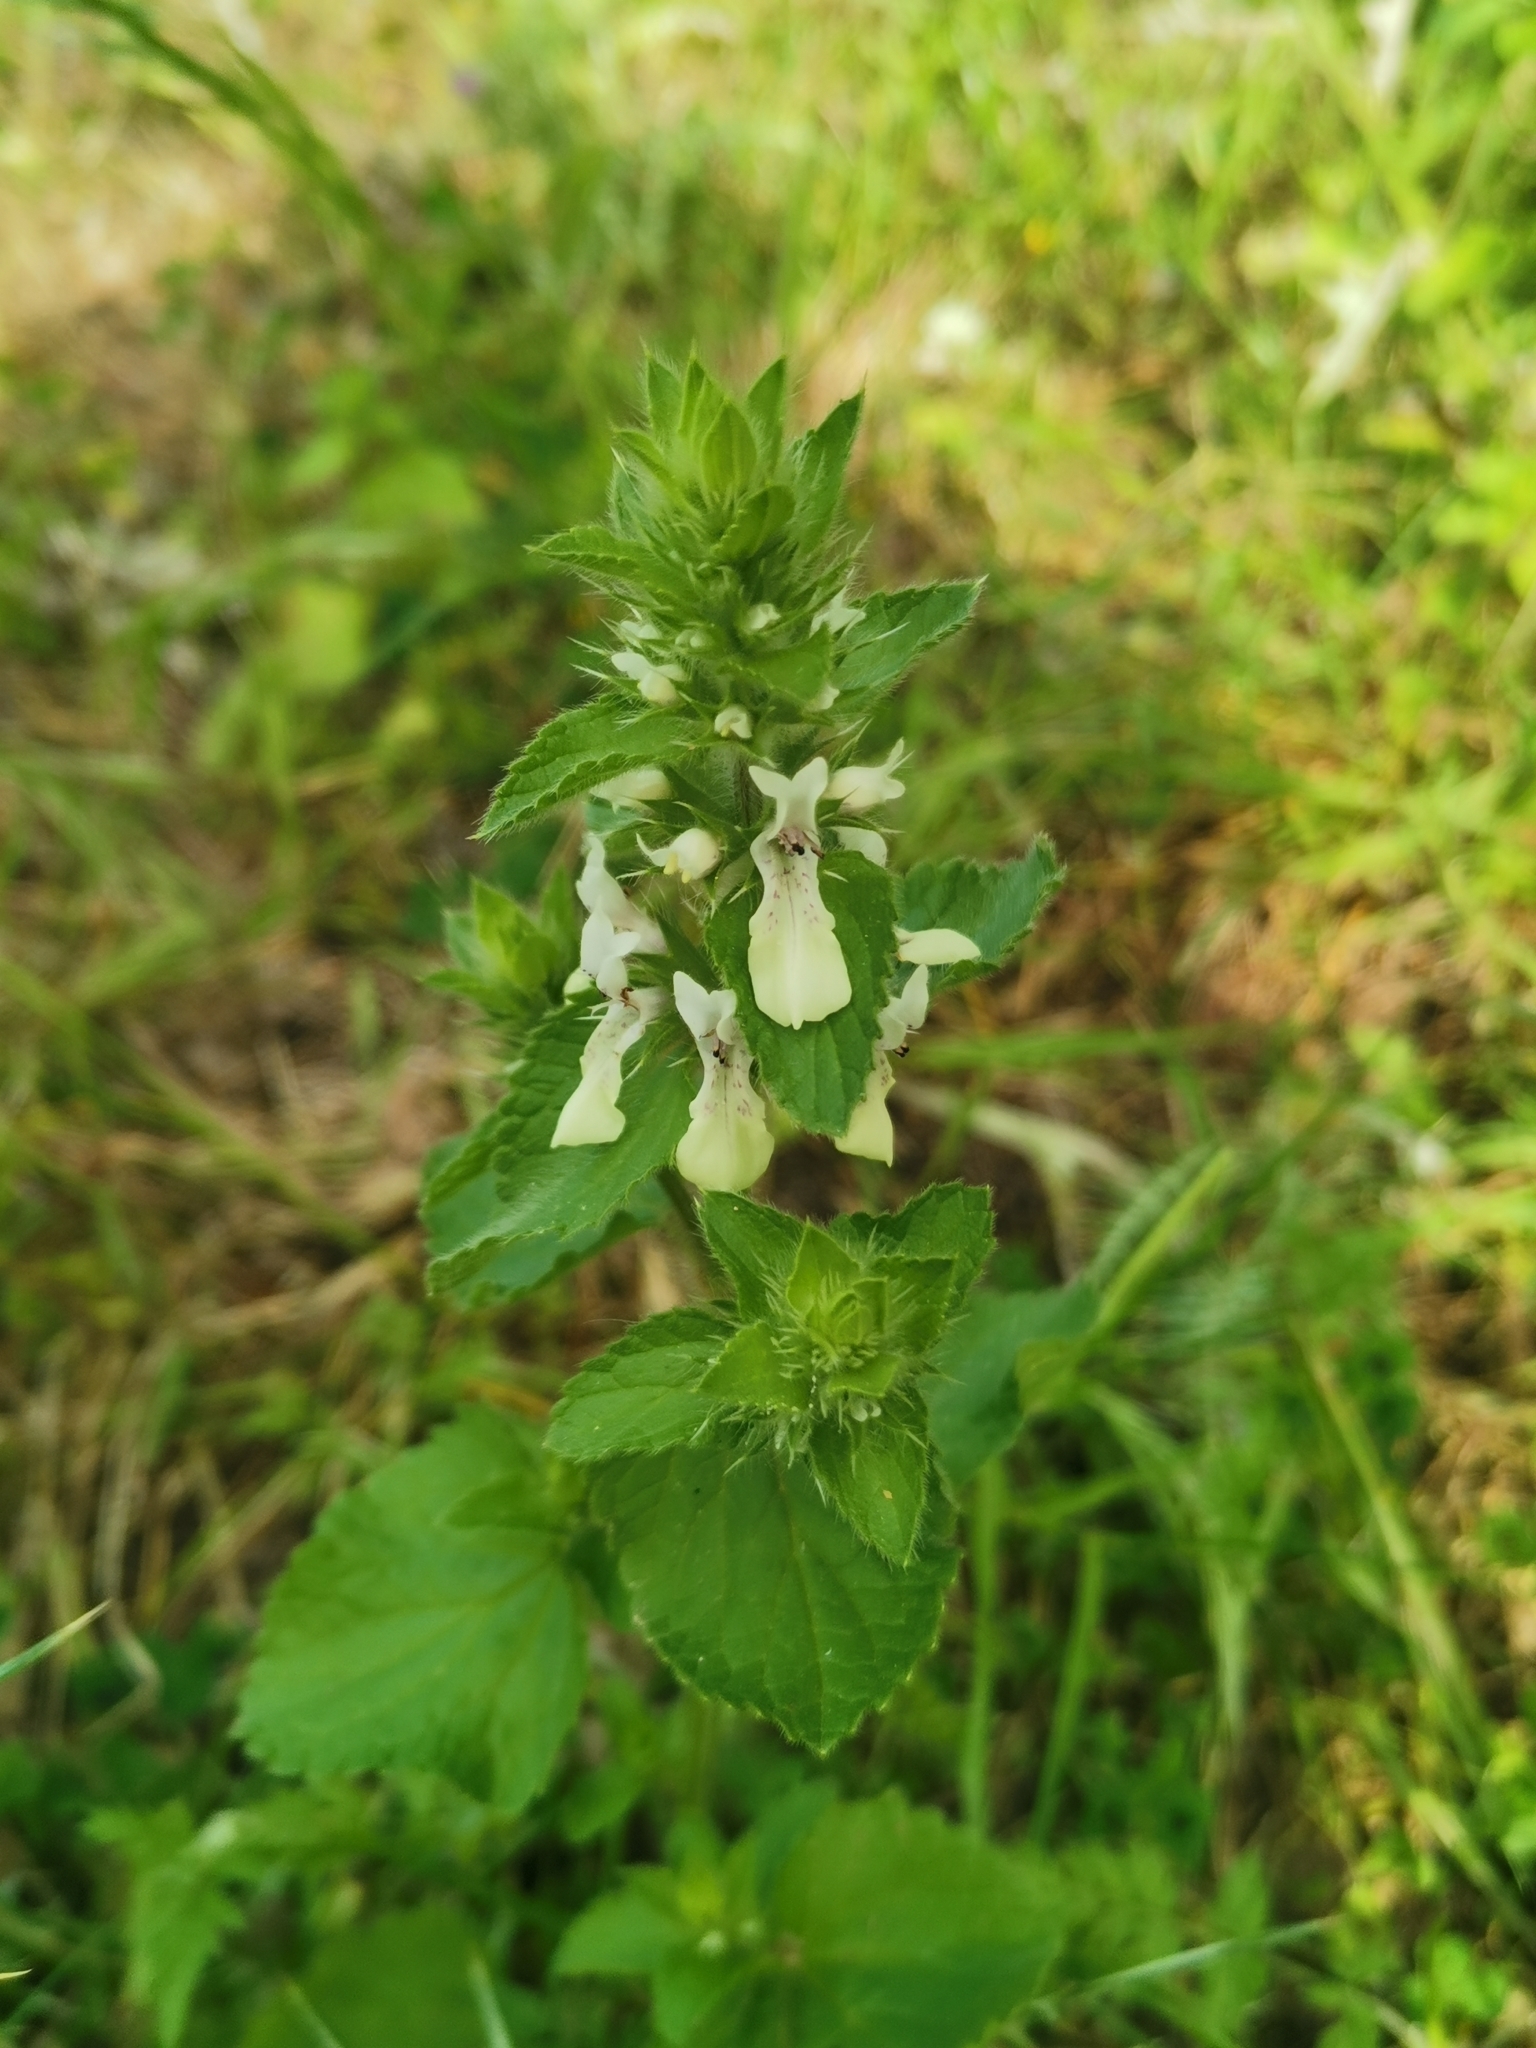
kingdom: Plantae
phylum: Tracheophyta
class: Magnoliopsida
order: Lamiales
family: Lamiaceae
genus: Stachys
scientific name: Stachys ocymastrum
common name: Italian hedgenettle
